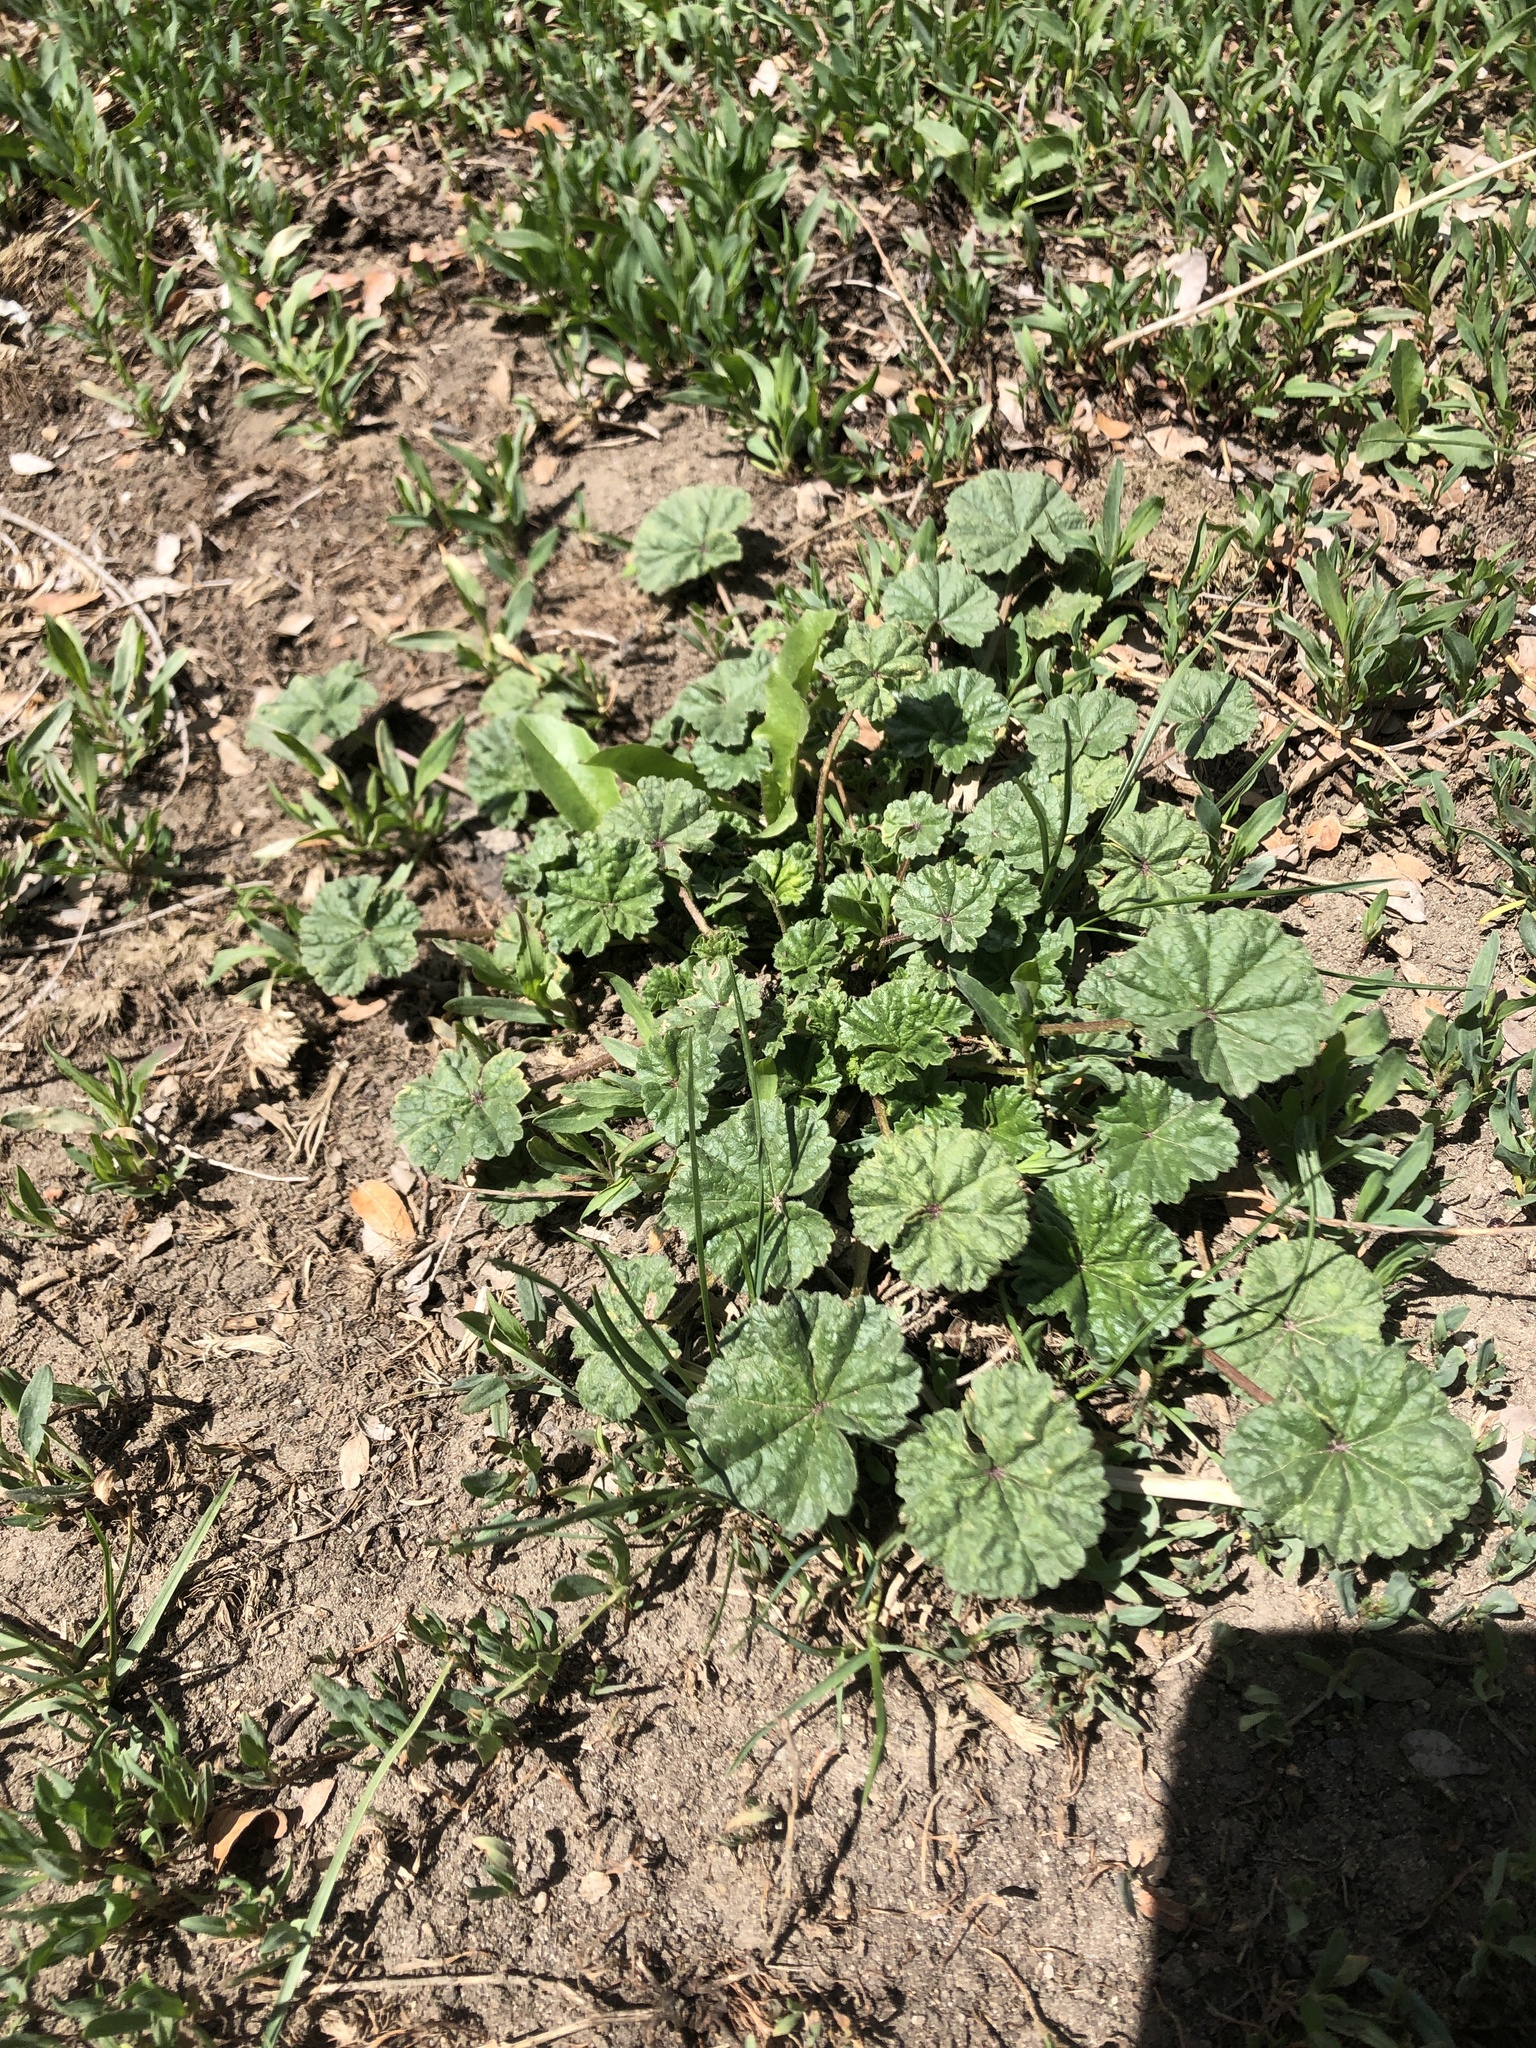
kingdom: Plantae
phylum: Tracheophyta
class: Magnoliopsida
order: Malvales
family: Malvaceae
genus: Malva
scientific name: Malva neglecta
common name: Common mallow
